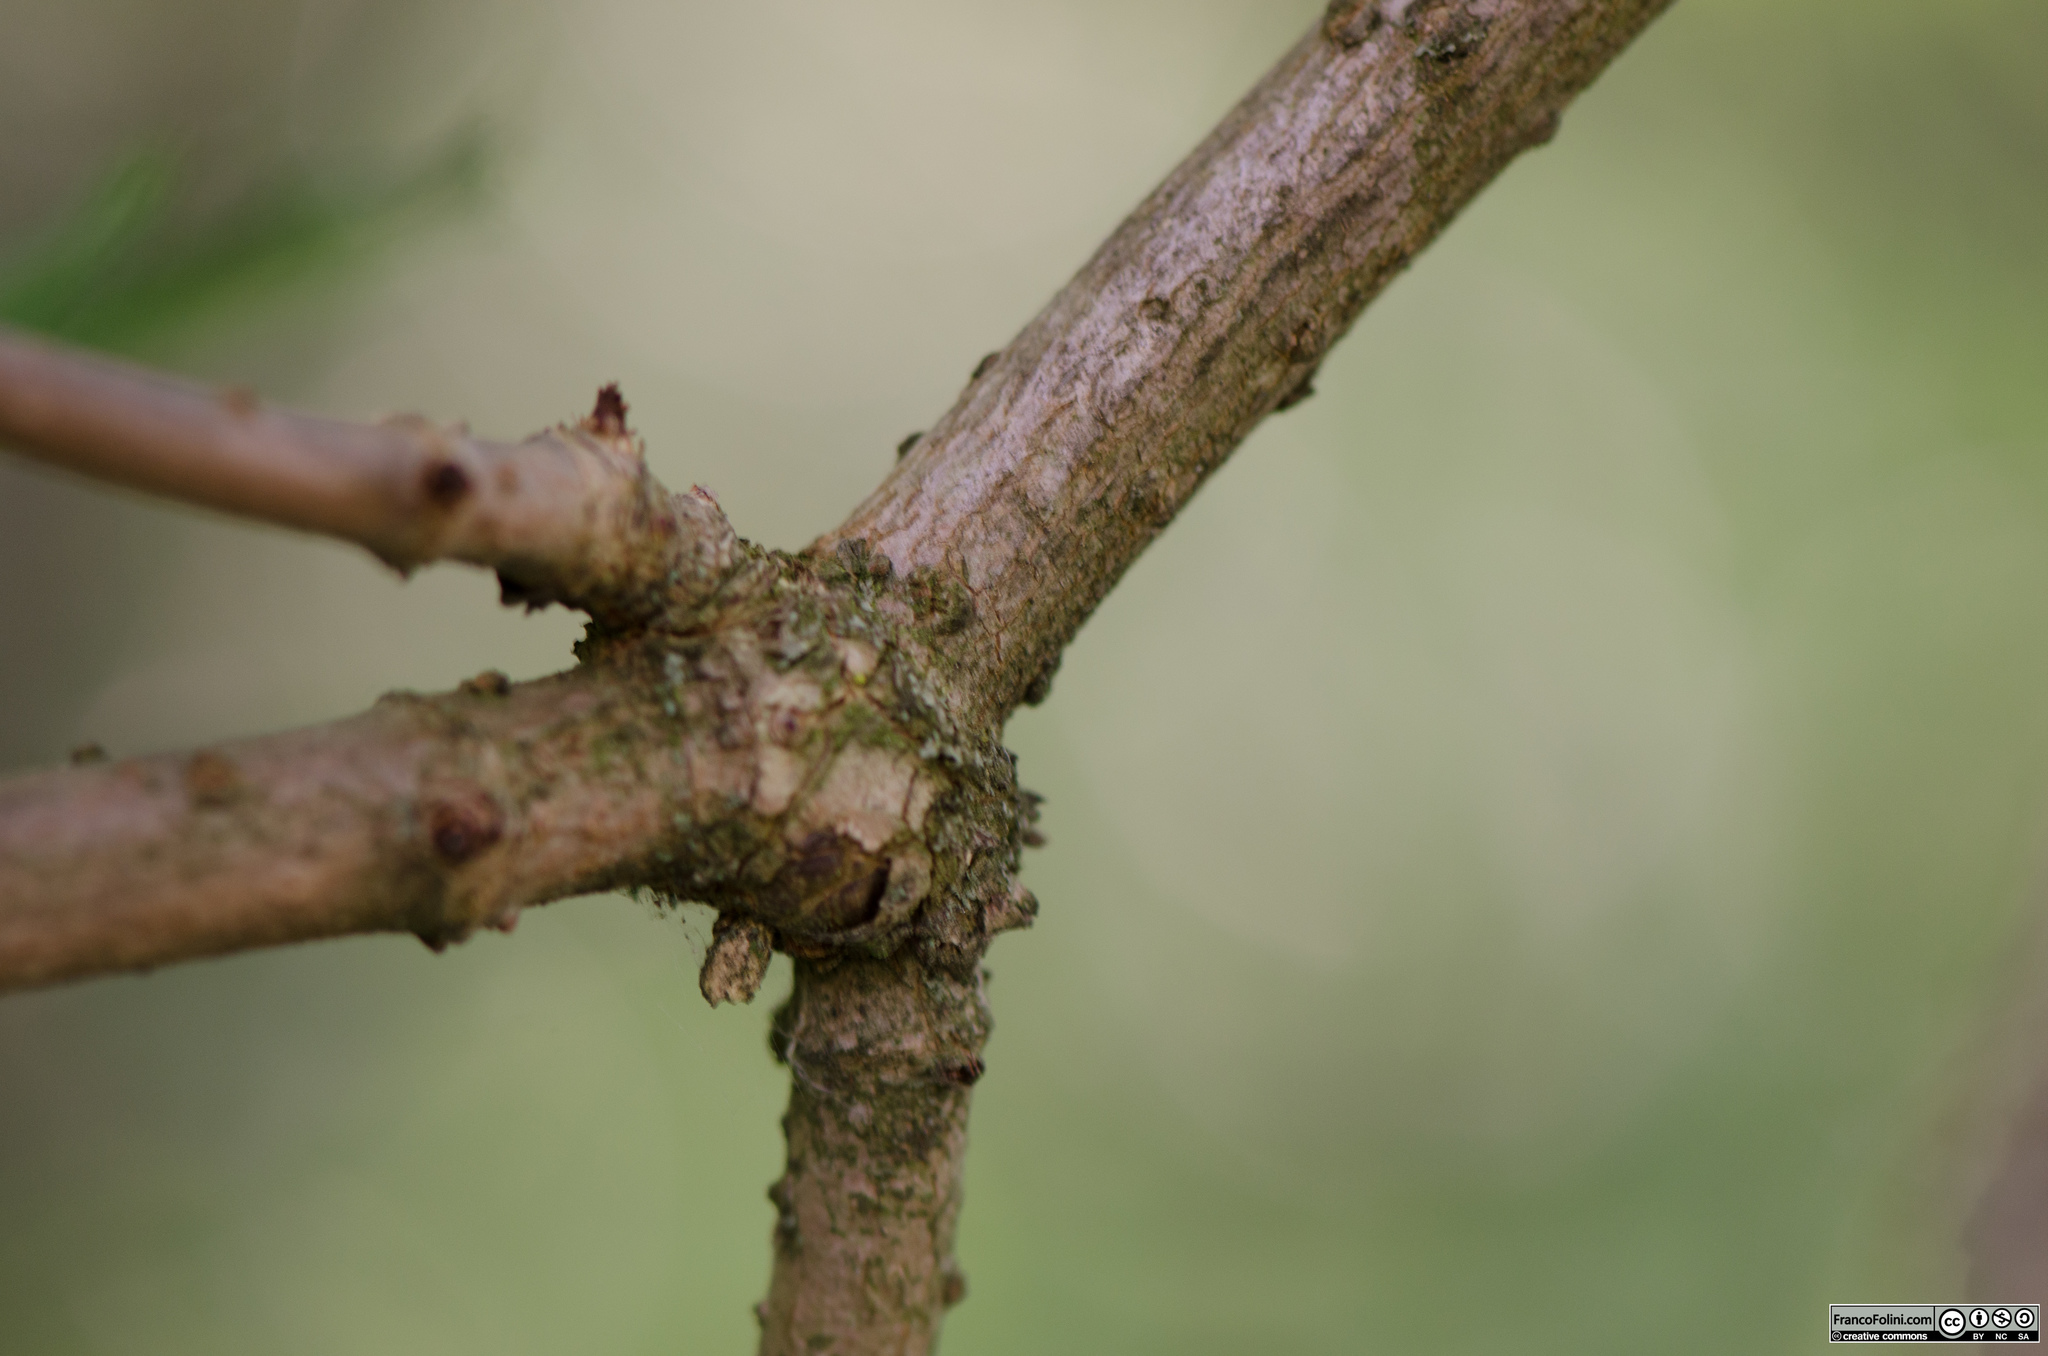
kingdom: Plantae
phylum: Tracheophyta
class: Magnoliopsida
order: Dipsacales
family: Viburnaceae
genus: Sambucus
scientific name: Sambucus nigra
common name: Elder
